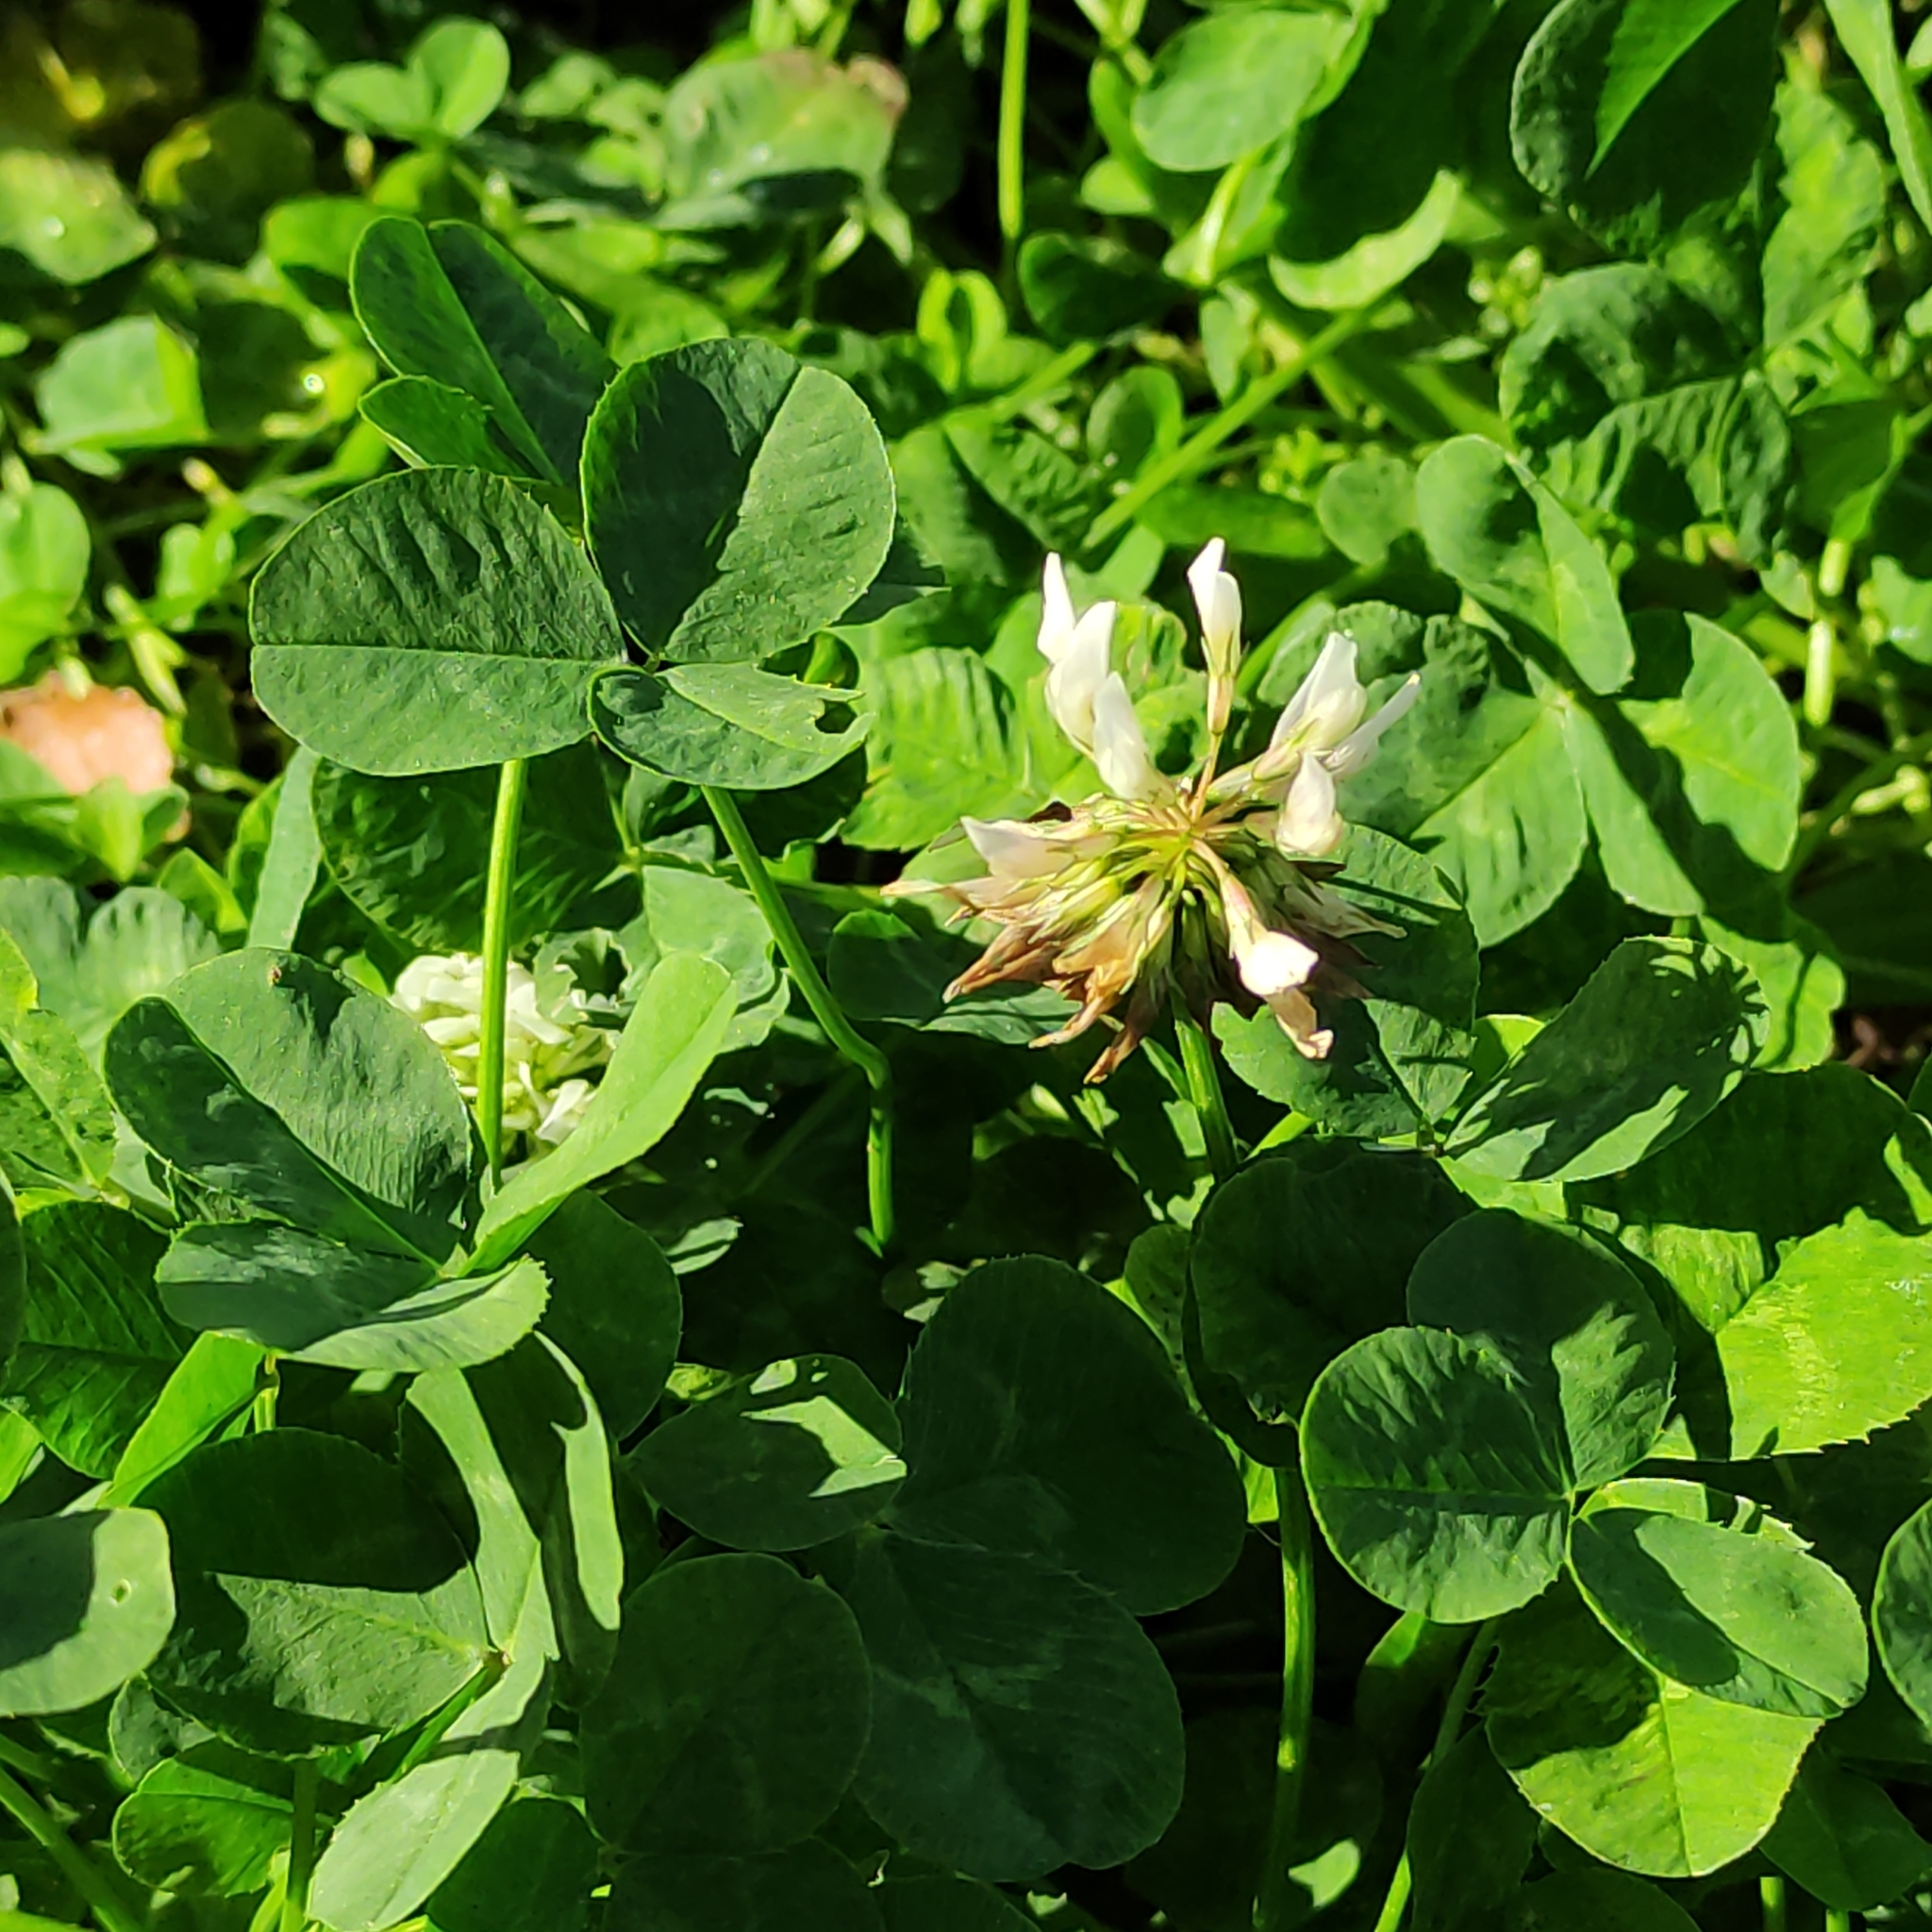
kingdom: Plantae
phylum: Tracheophyta
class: Magnoliopsida
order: Fabales
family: Fabaceae
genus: Trifolium
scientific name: Trifolium repens
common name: White clover
